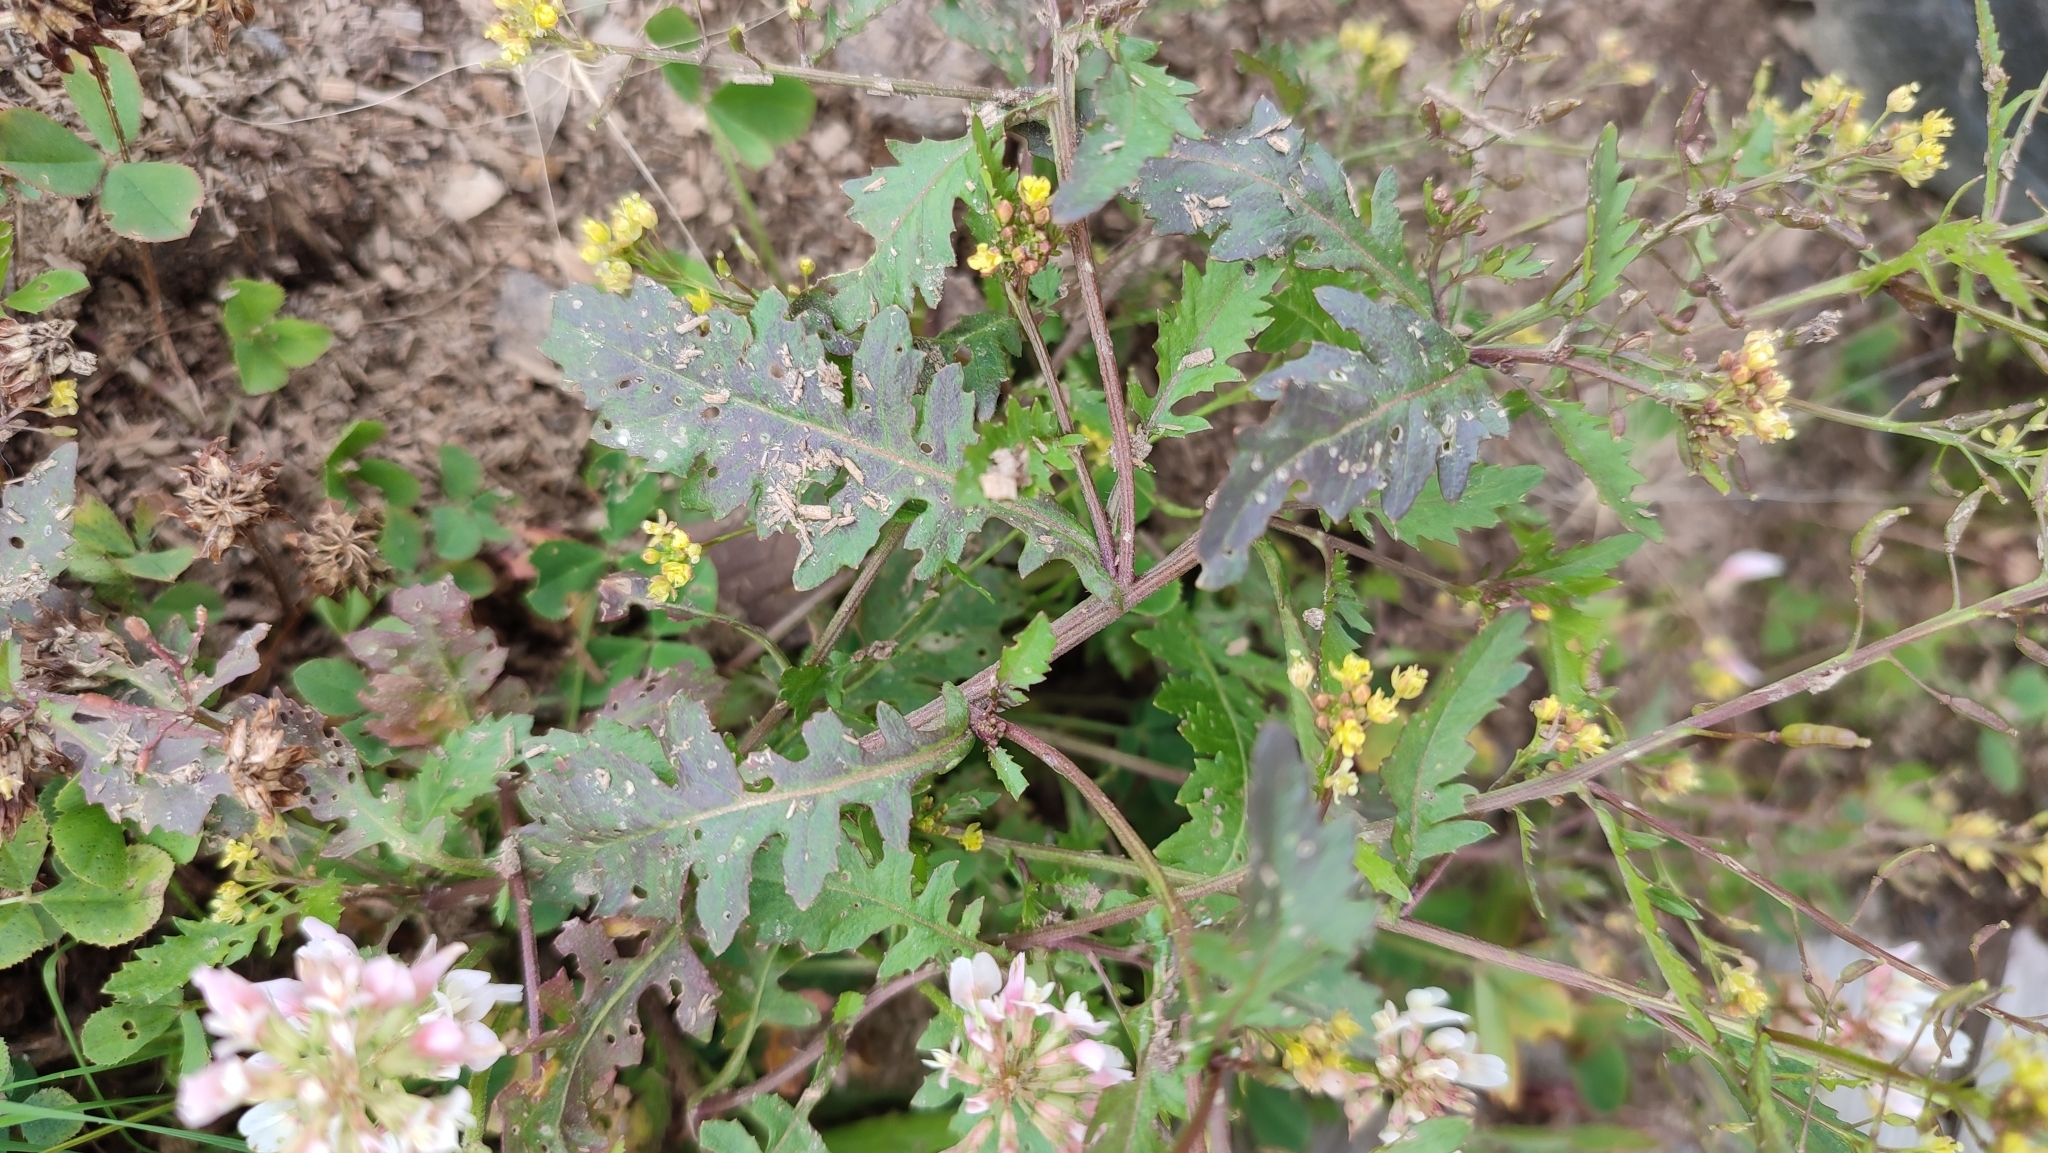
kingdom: Plantae
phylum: Tracheophyta
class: Magnoliopsida
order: Brassicales
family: Brassicaceae
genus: Rorippa
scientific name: Rorippa palustris
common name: Marsh yellow-cress
